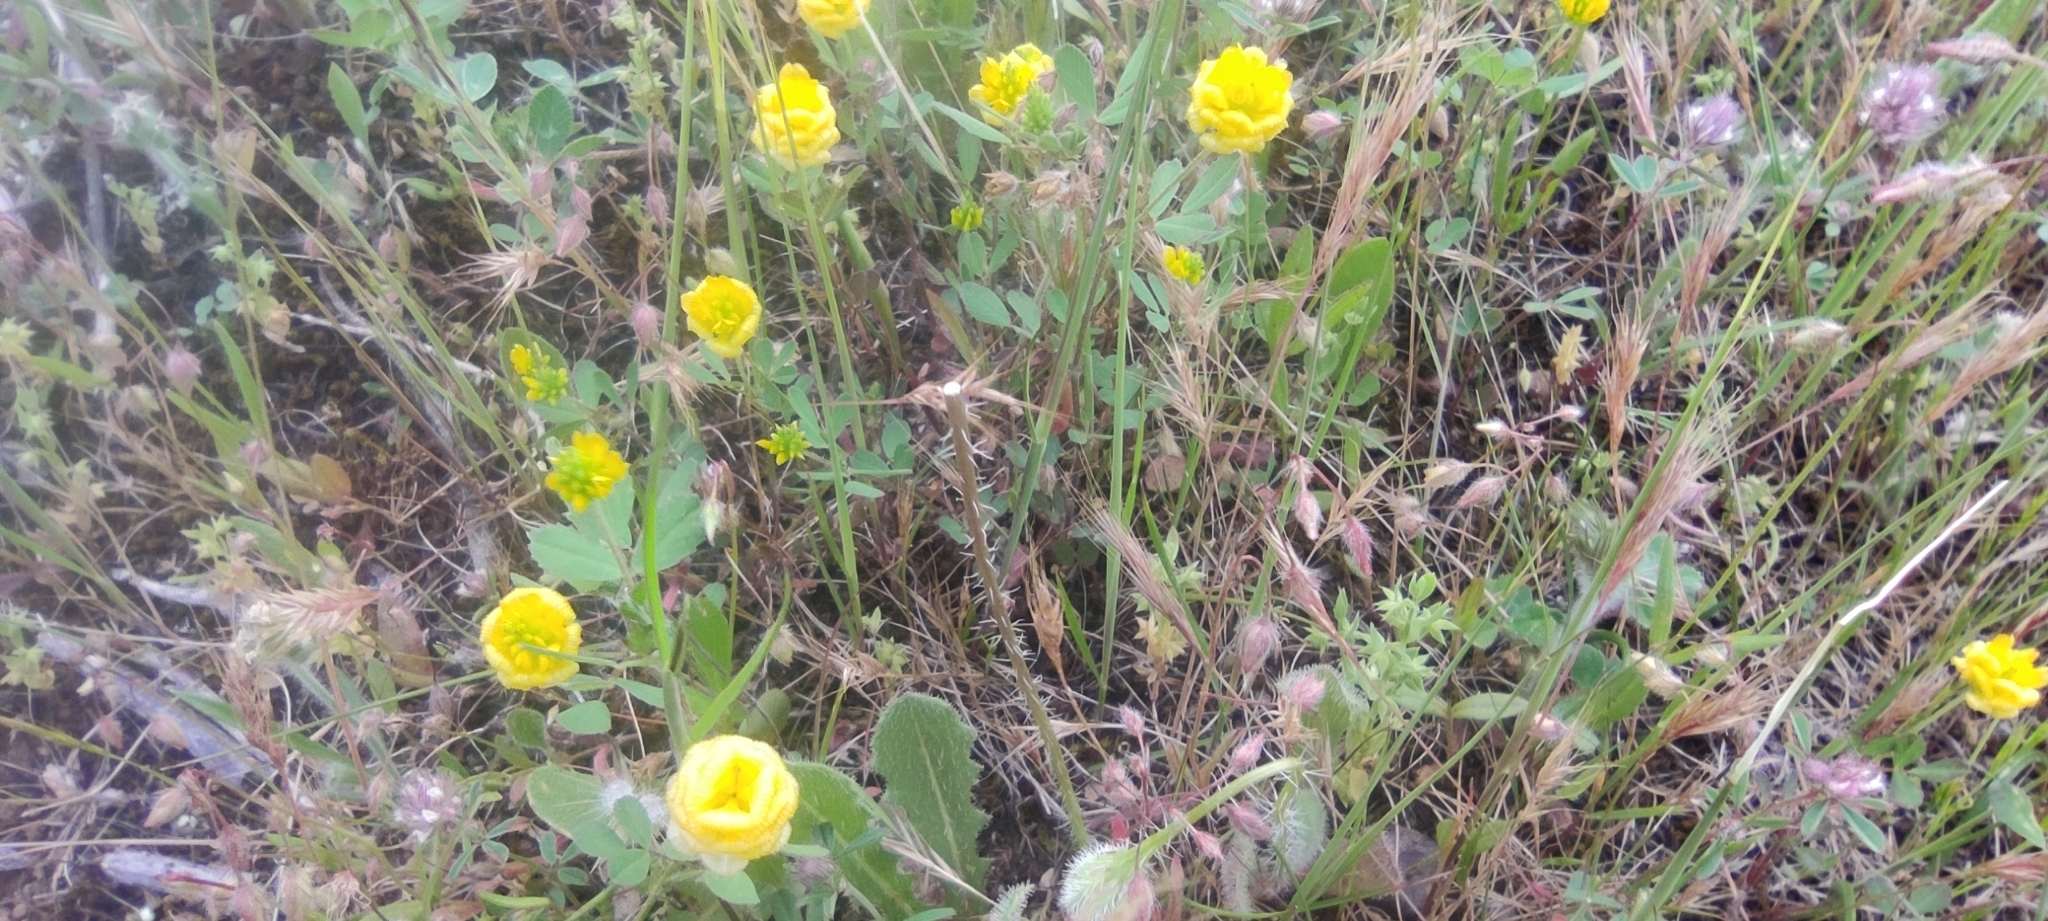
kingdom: Plantae
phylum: Tracheophyta
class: Magnoliopsida
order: Fabales
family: Fabaceae
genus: Trifolium
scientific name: Trifolium campestre
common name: Field clover
